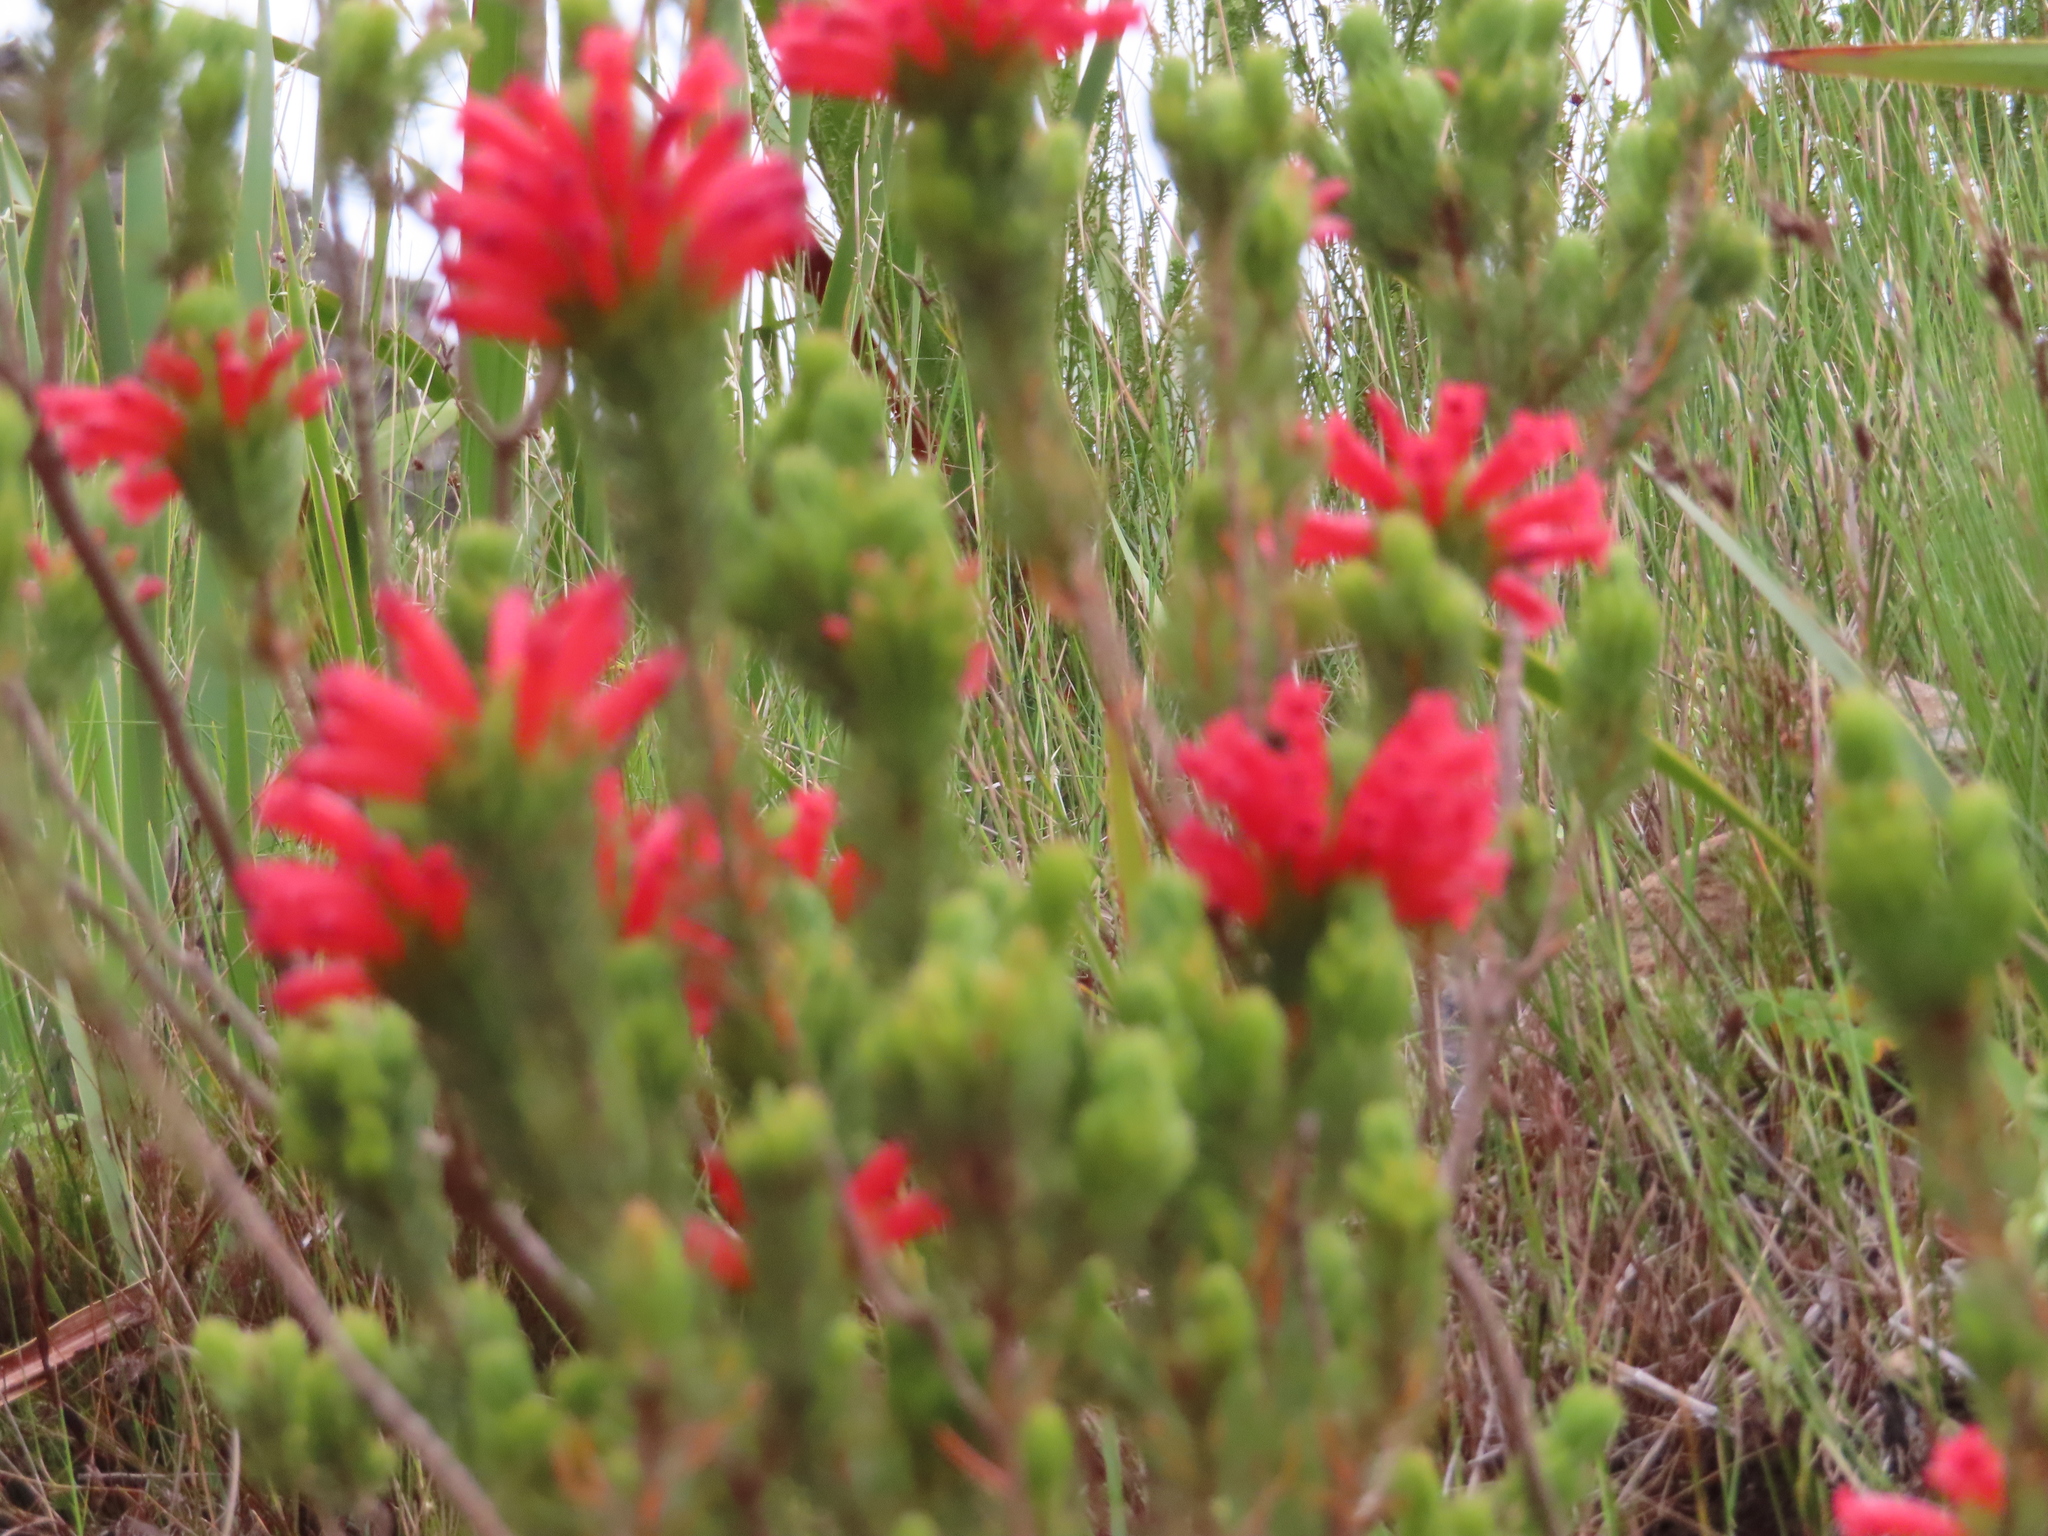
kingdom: Plantae
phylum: Tracheophyta
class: Magnoliopsida
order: Ericales
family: Ericaceae
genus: Erica
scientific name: Erica viscaria
